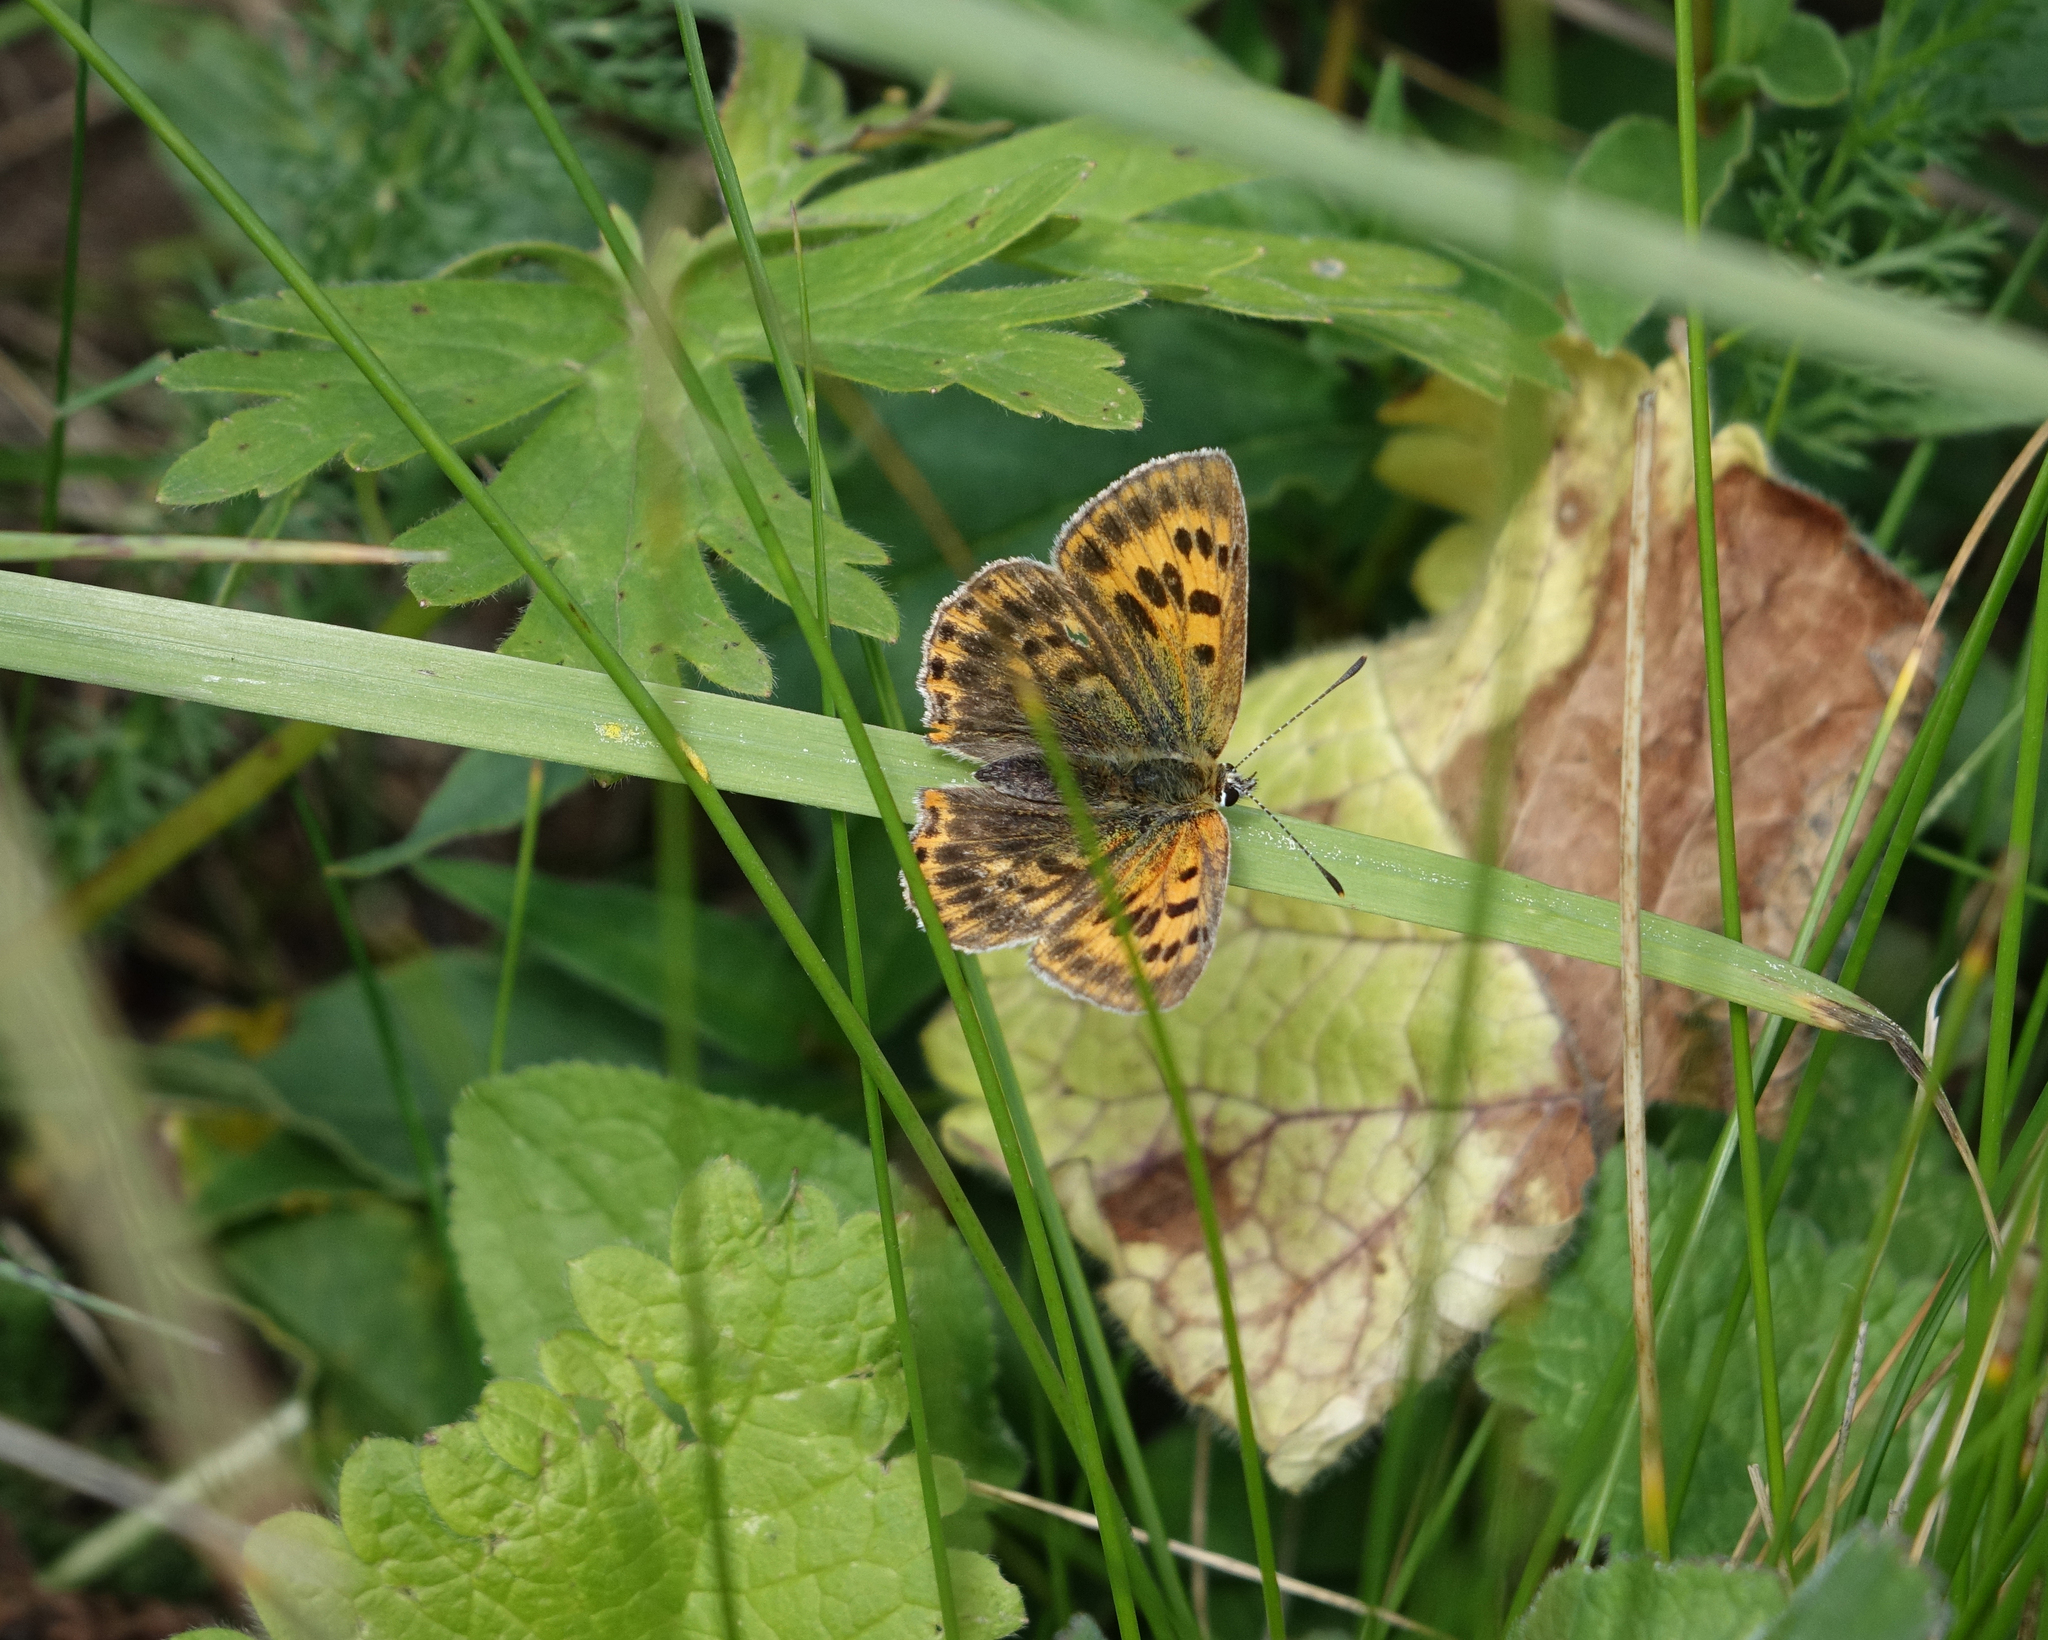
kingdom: Animalia
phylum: Arthropoda
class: Insecta
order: Lepidoptera
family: Lycaenidae
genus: Lycaena
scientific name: Lycaena virgaureae
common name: Scarce copper
